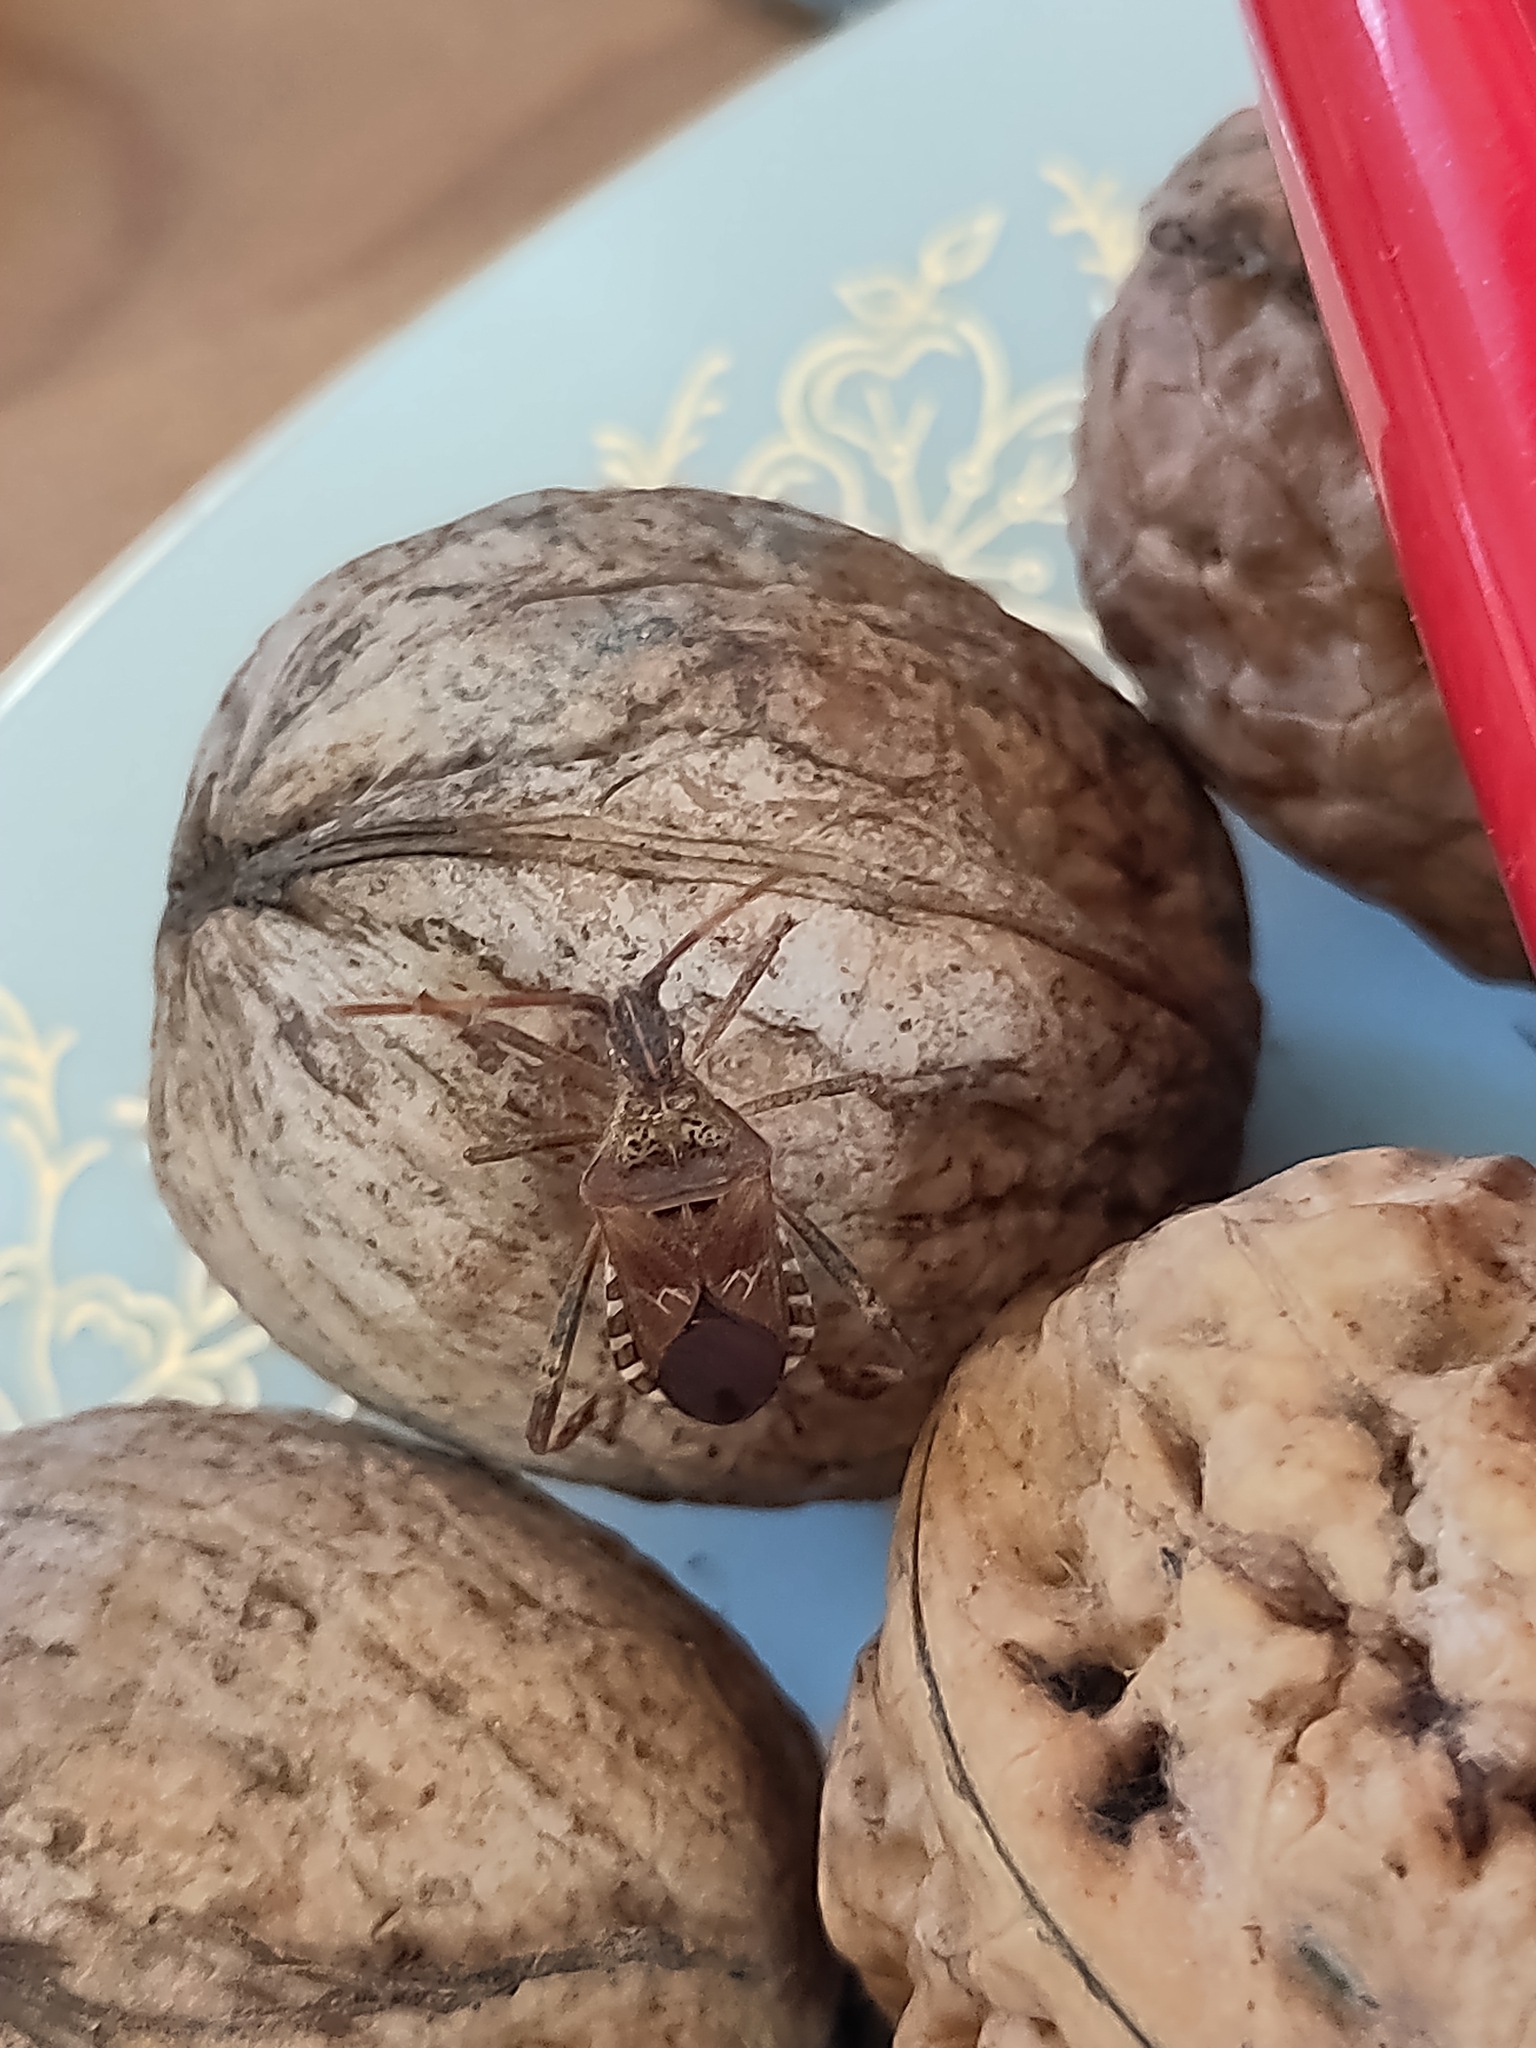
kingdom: Animalia
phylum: Arthropoda
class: Insecta
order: Hemiptera
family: Coreidae
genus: Leptoglossus
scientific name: Leptoglossus occidentalis
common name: Western conifer-seed bug
